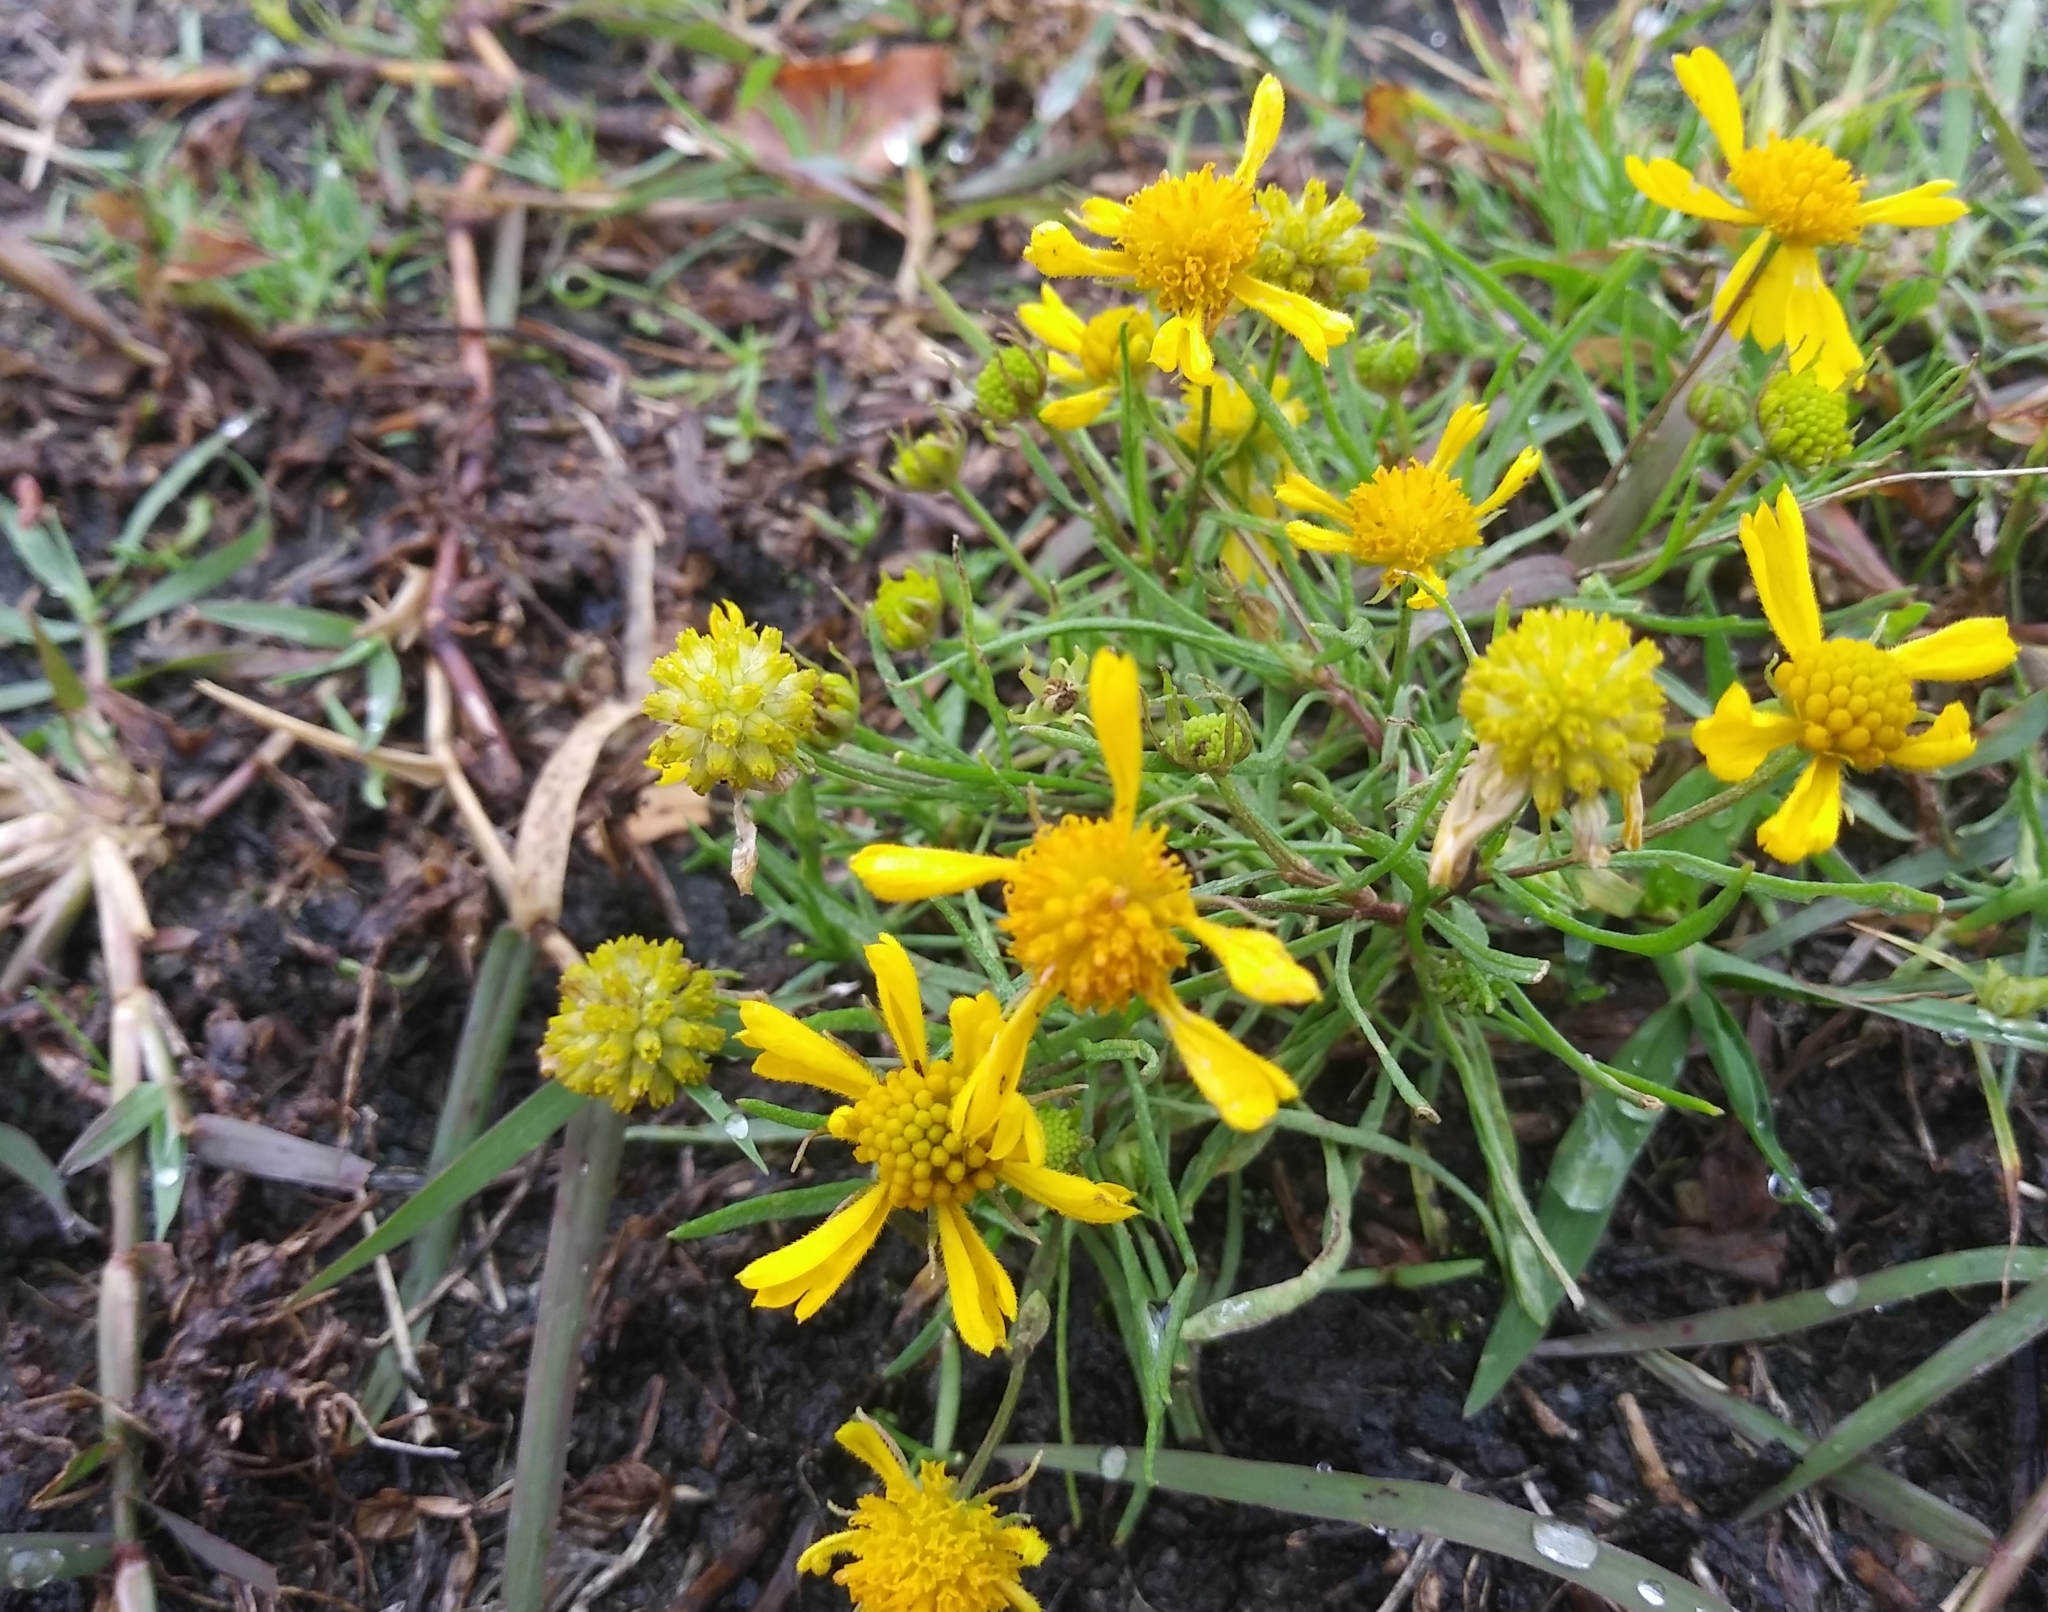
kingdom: Plantae
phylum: Tracheophyta
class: Magnoliopsida
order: Asterales
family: Asteraceae
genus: Helenium
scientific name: Helenium amarum
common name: Bitter sneezeweed
